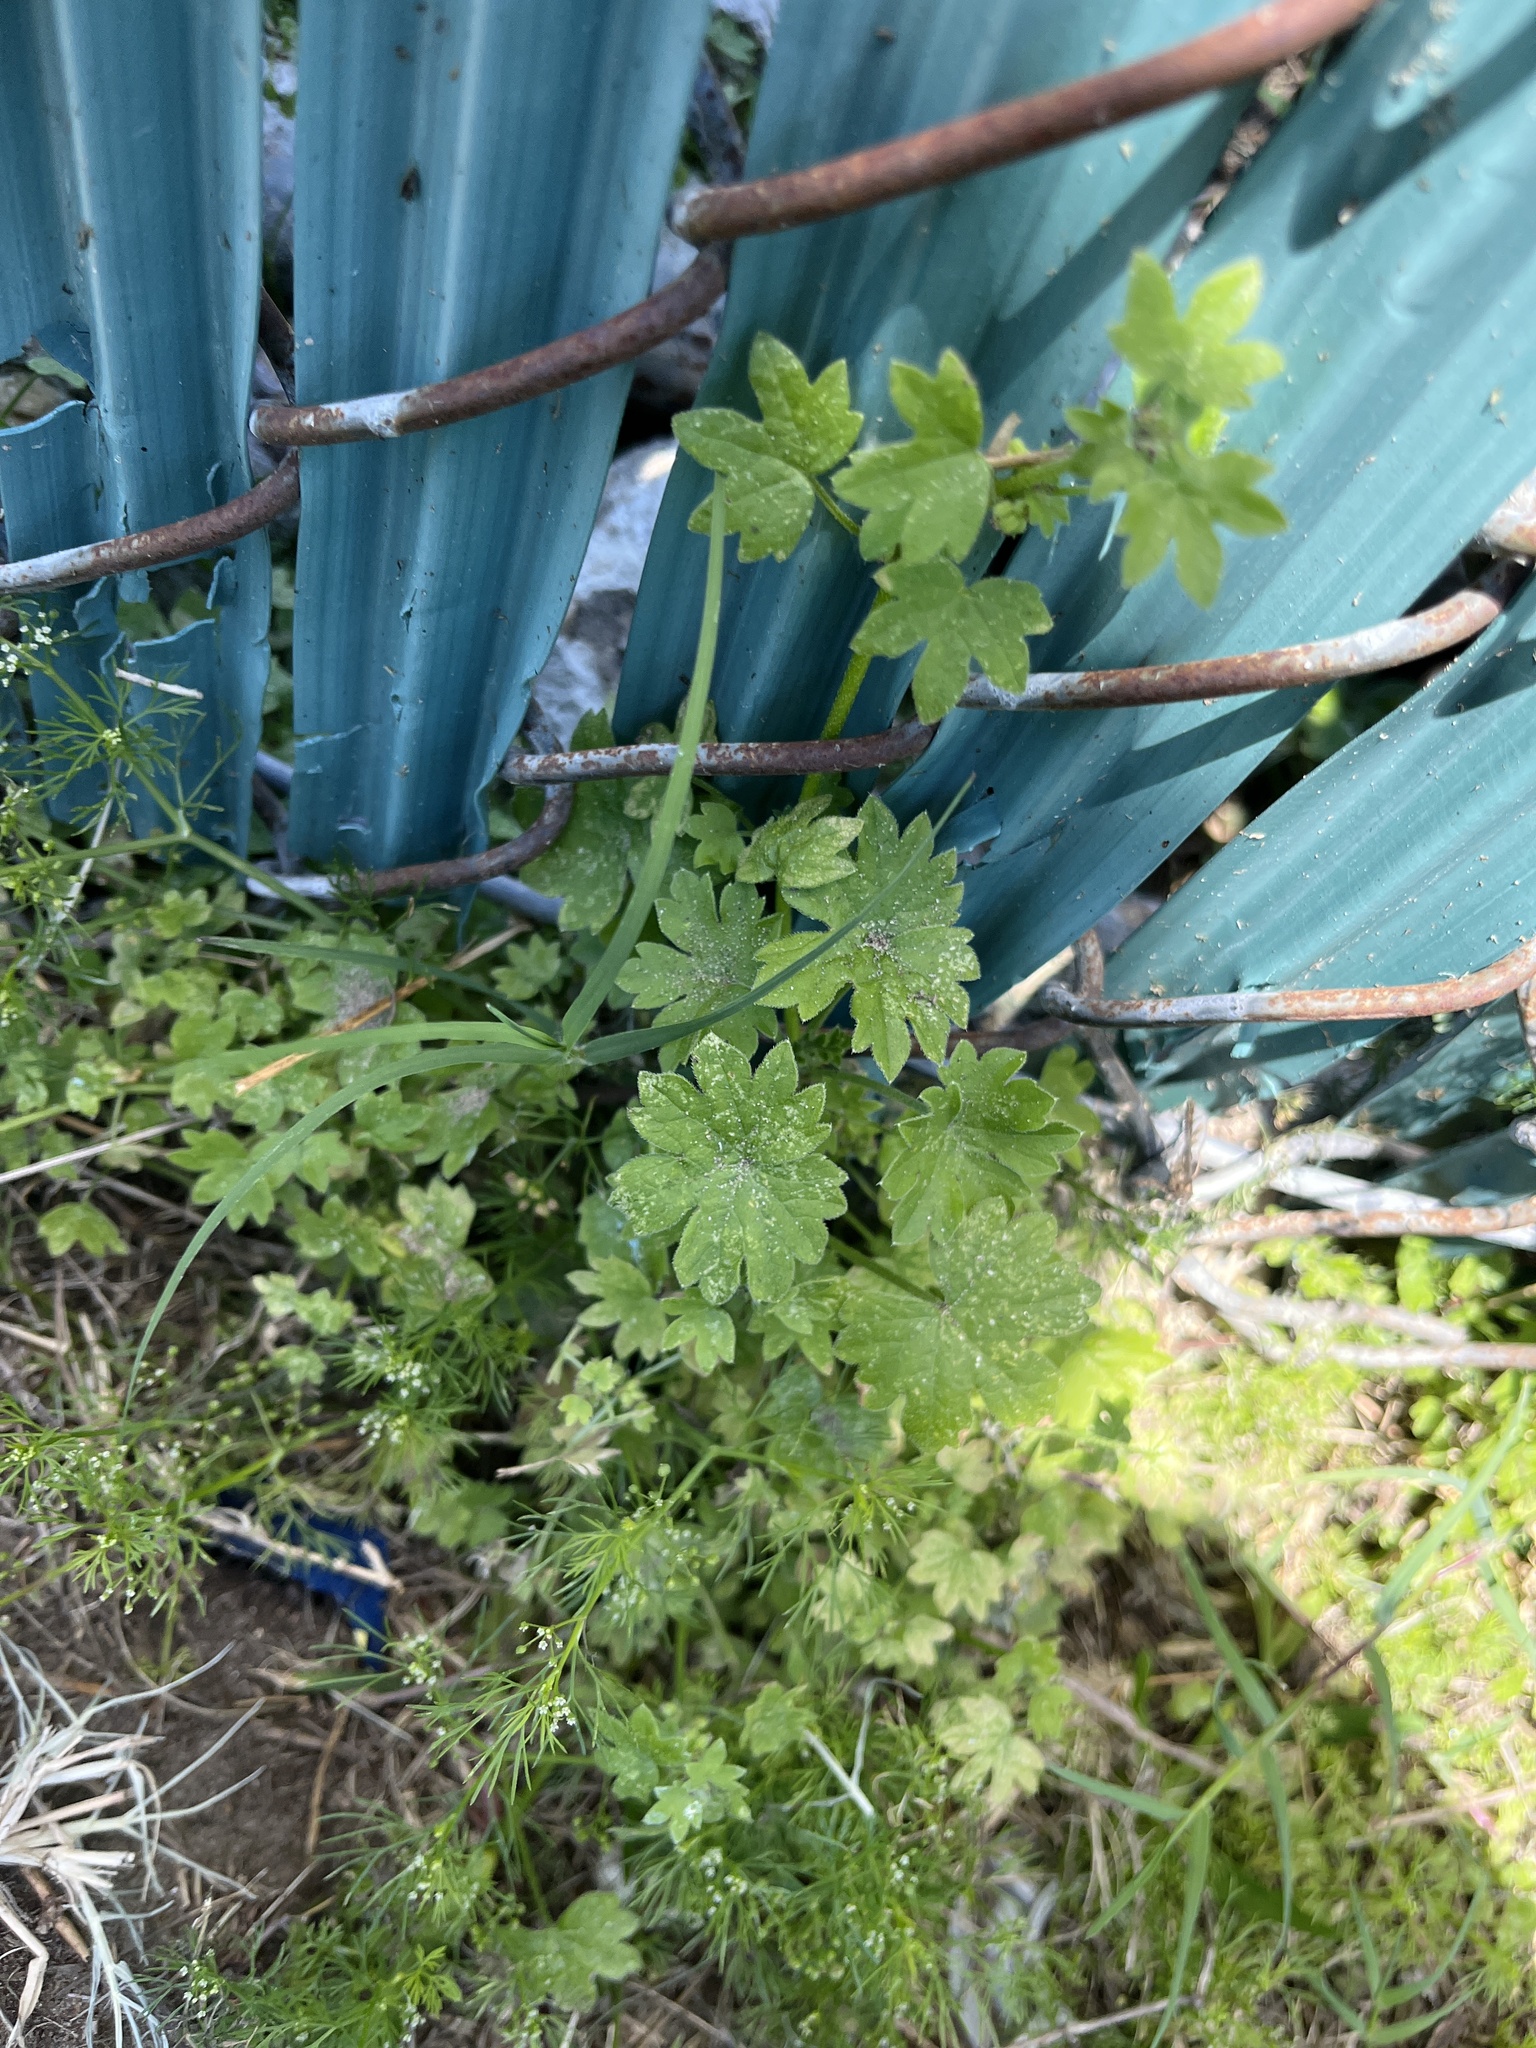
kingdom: Plantae
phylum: Tracheophyta
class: Magnoliopsida
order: Apiales
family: Apiaceae
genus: Bowlesia
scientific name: Bowlesia incana
